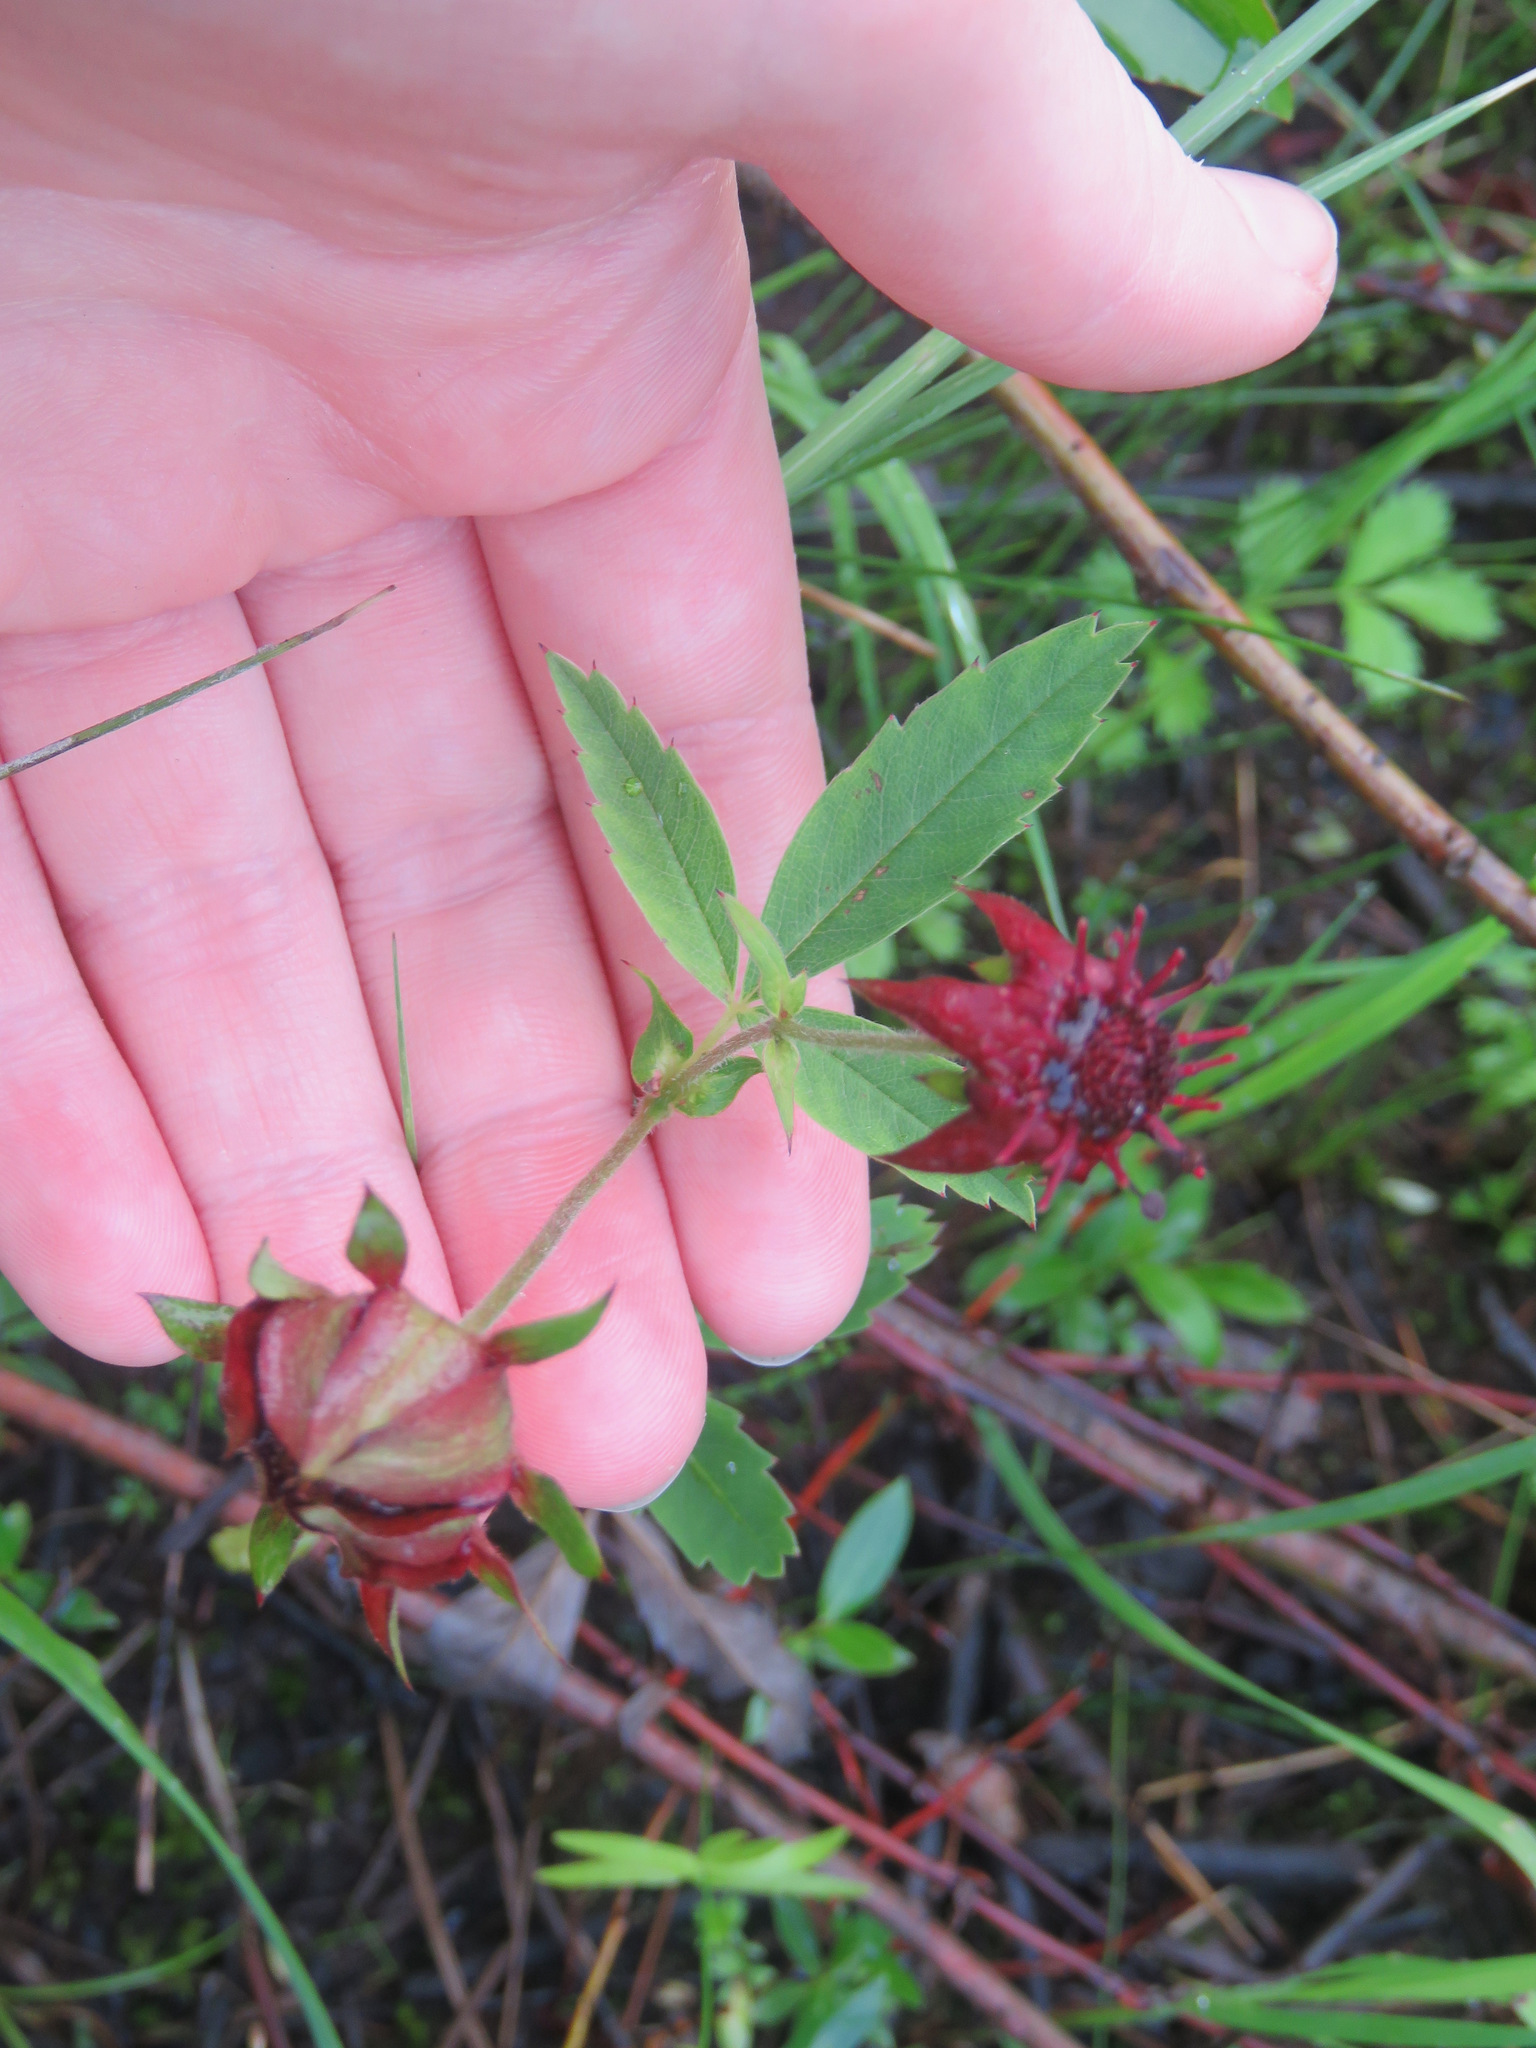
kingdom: Plantae
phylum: Tracheophyta
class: Magnoliopsida
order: Rosales
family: Rosaceae
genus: Comarum
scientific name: Comarum palustre
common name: Marsh cinquefoil
